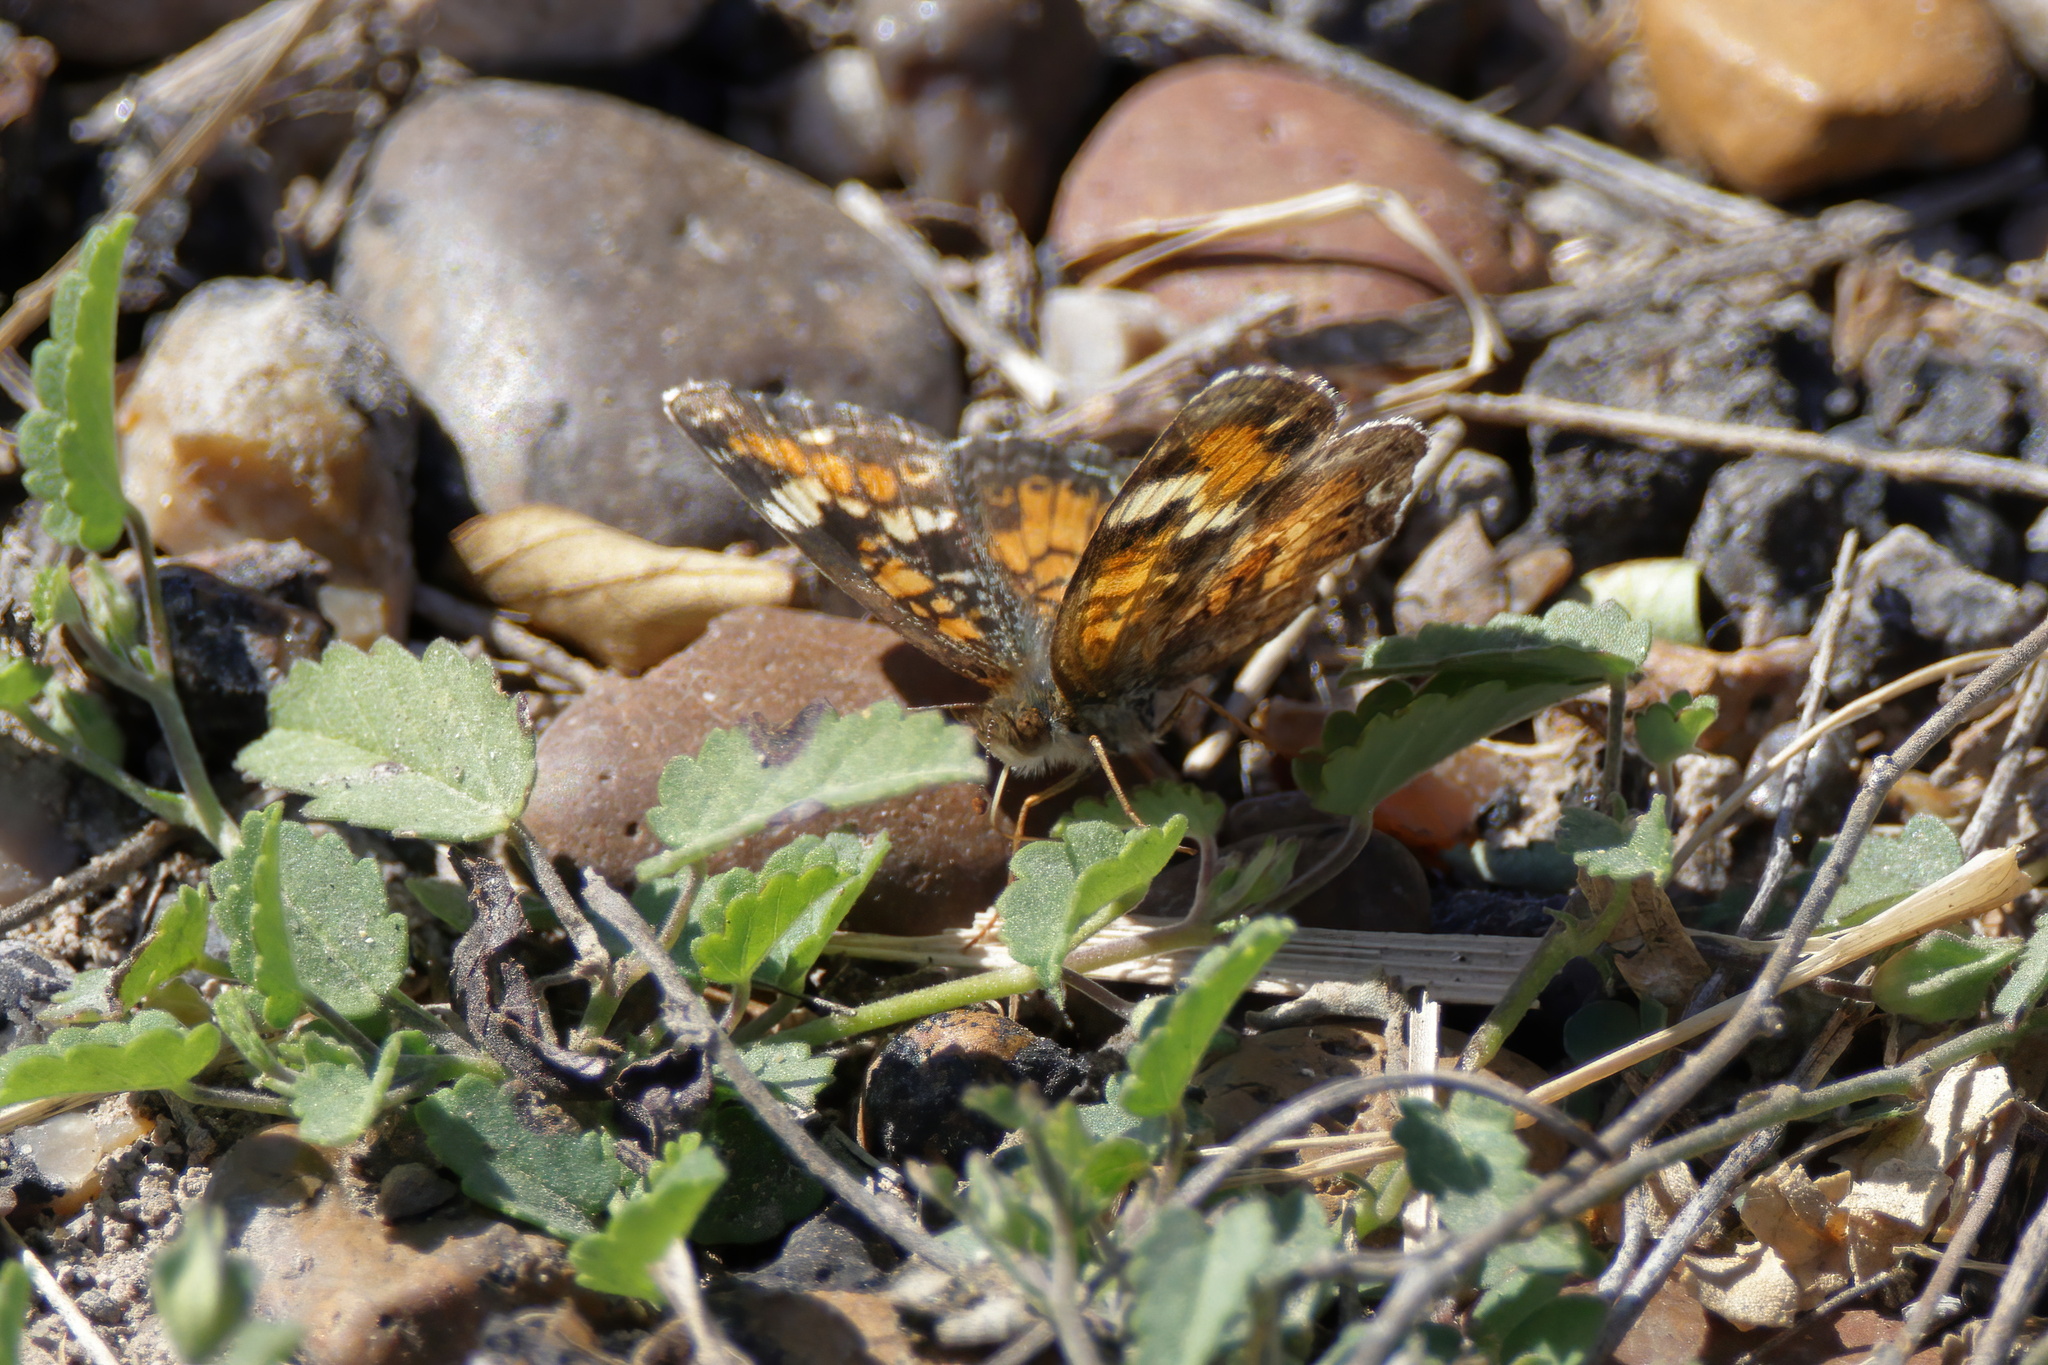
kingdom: Animalia
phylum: Arthropoda
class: Insecta
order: Lepidoptera
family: Nymphalidae
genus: Phyciodes
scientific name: Phyciodes phaon
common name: Phaon crescent
